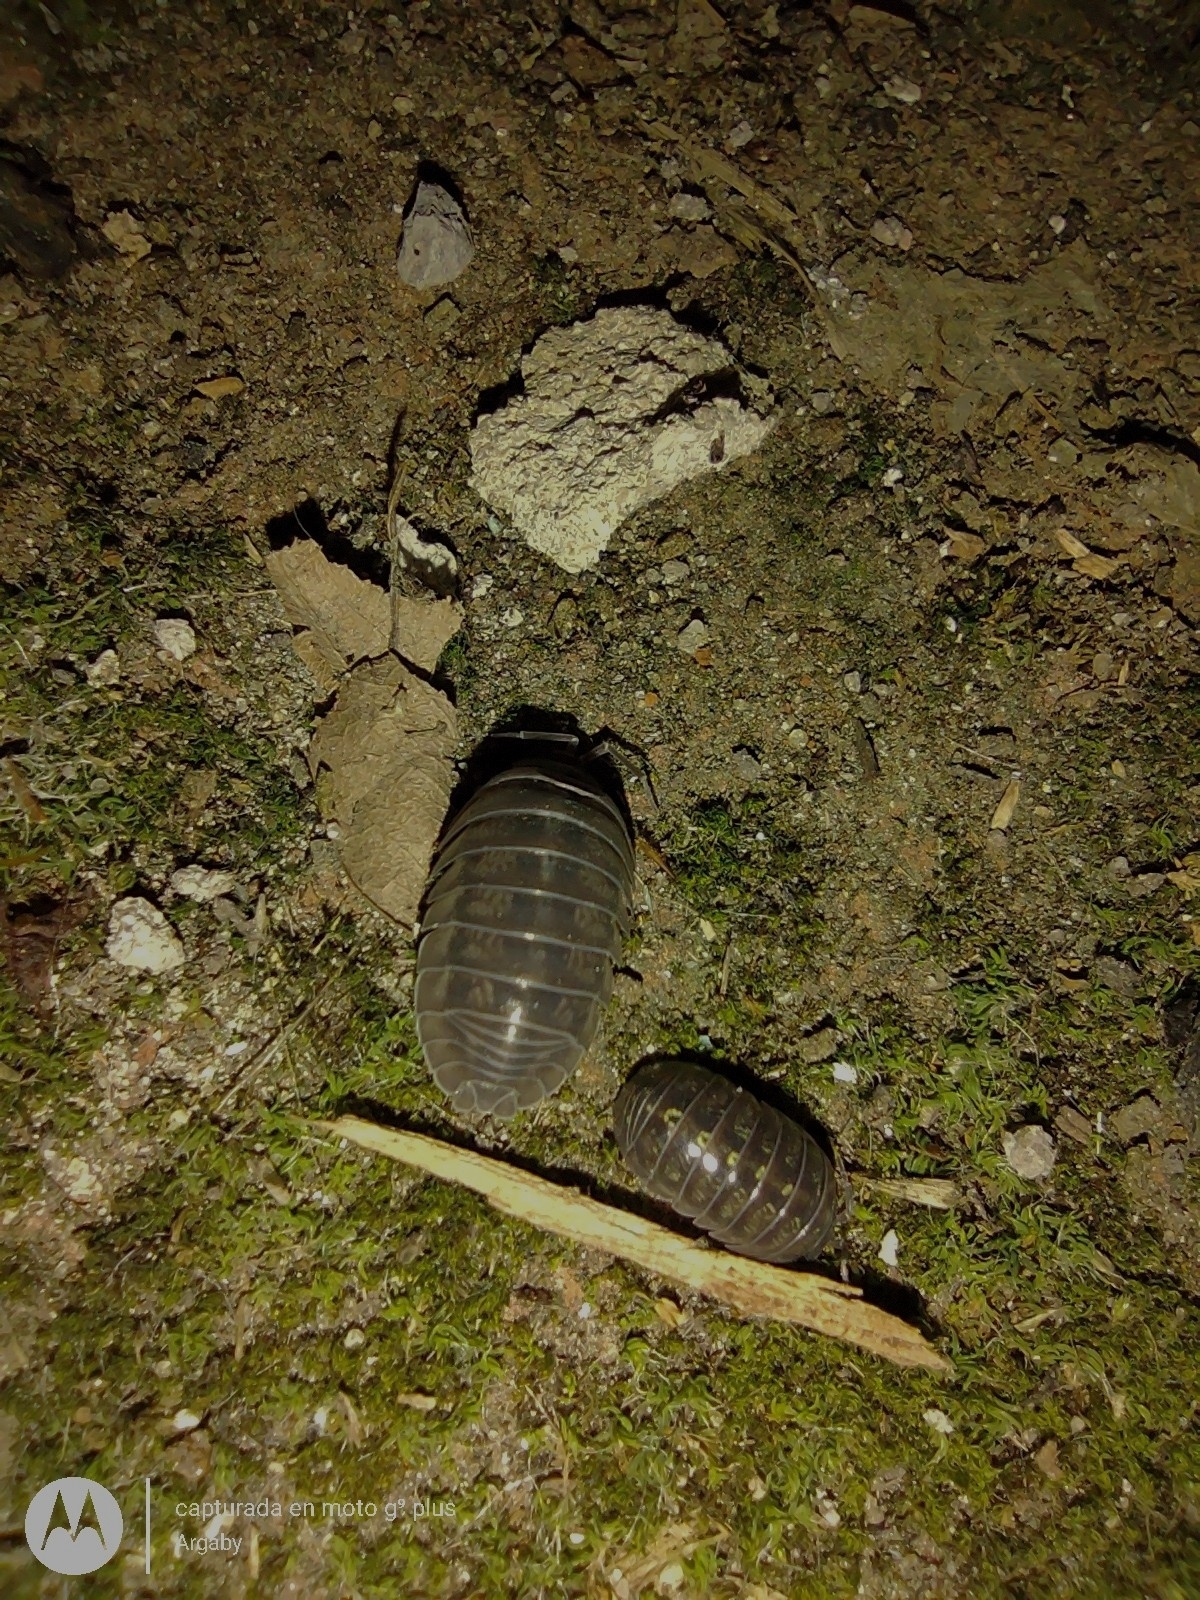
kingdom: Animalia
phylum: Arthropoda
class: Malacostraca
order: Isopoda
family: Armadillidiidae
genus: Armadillidium
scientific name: Armadillidium vulgare
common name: Common pill woodlouse
